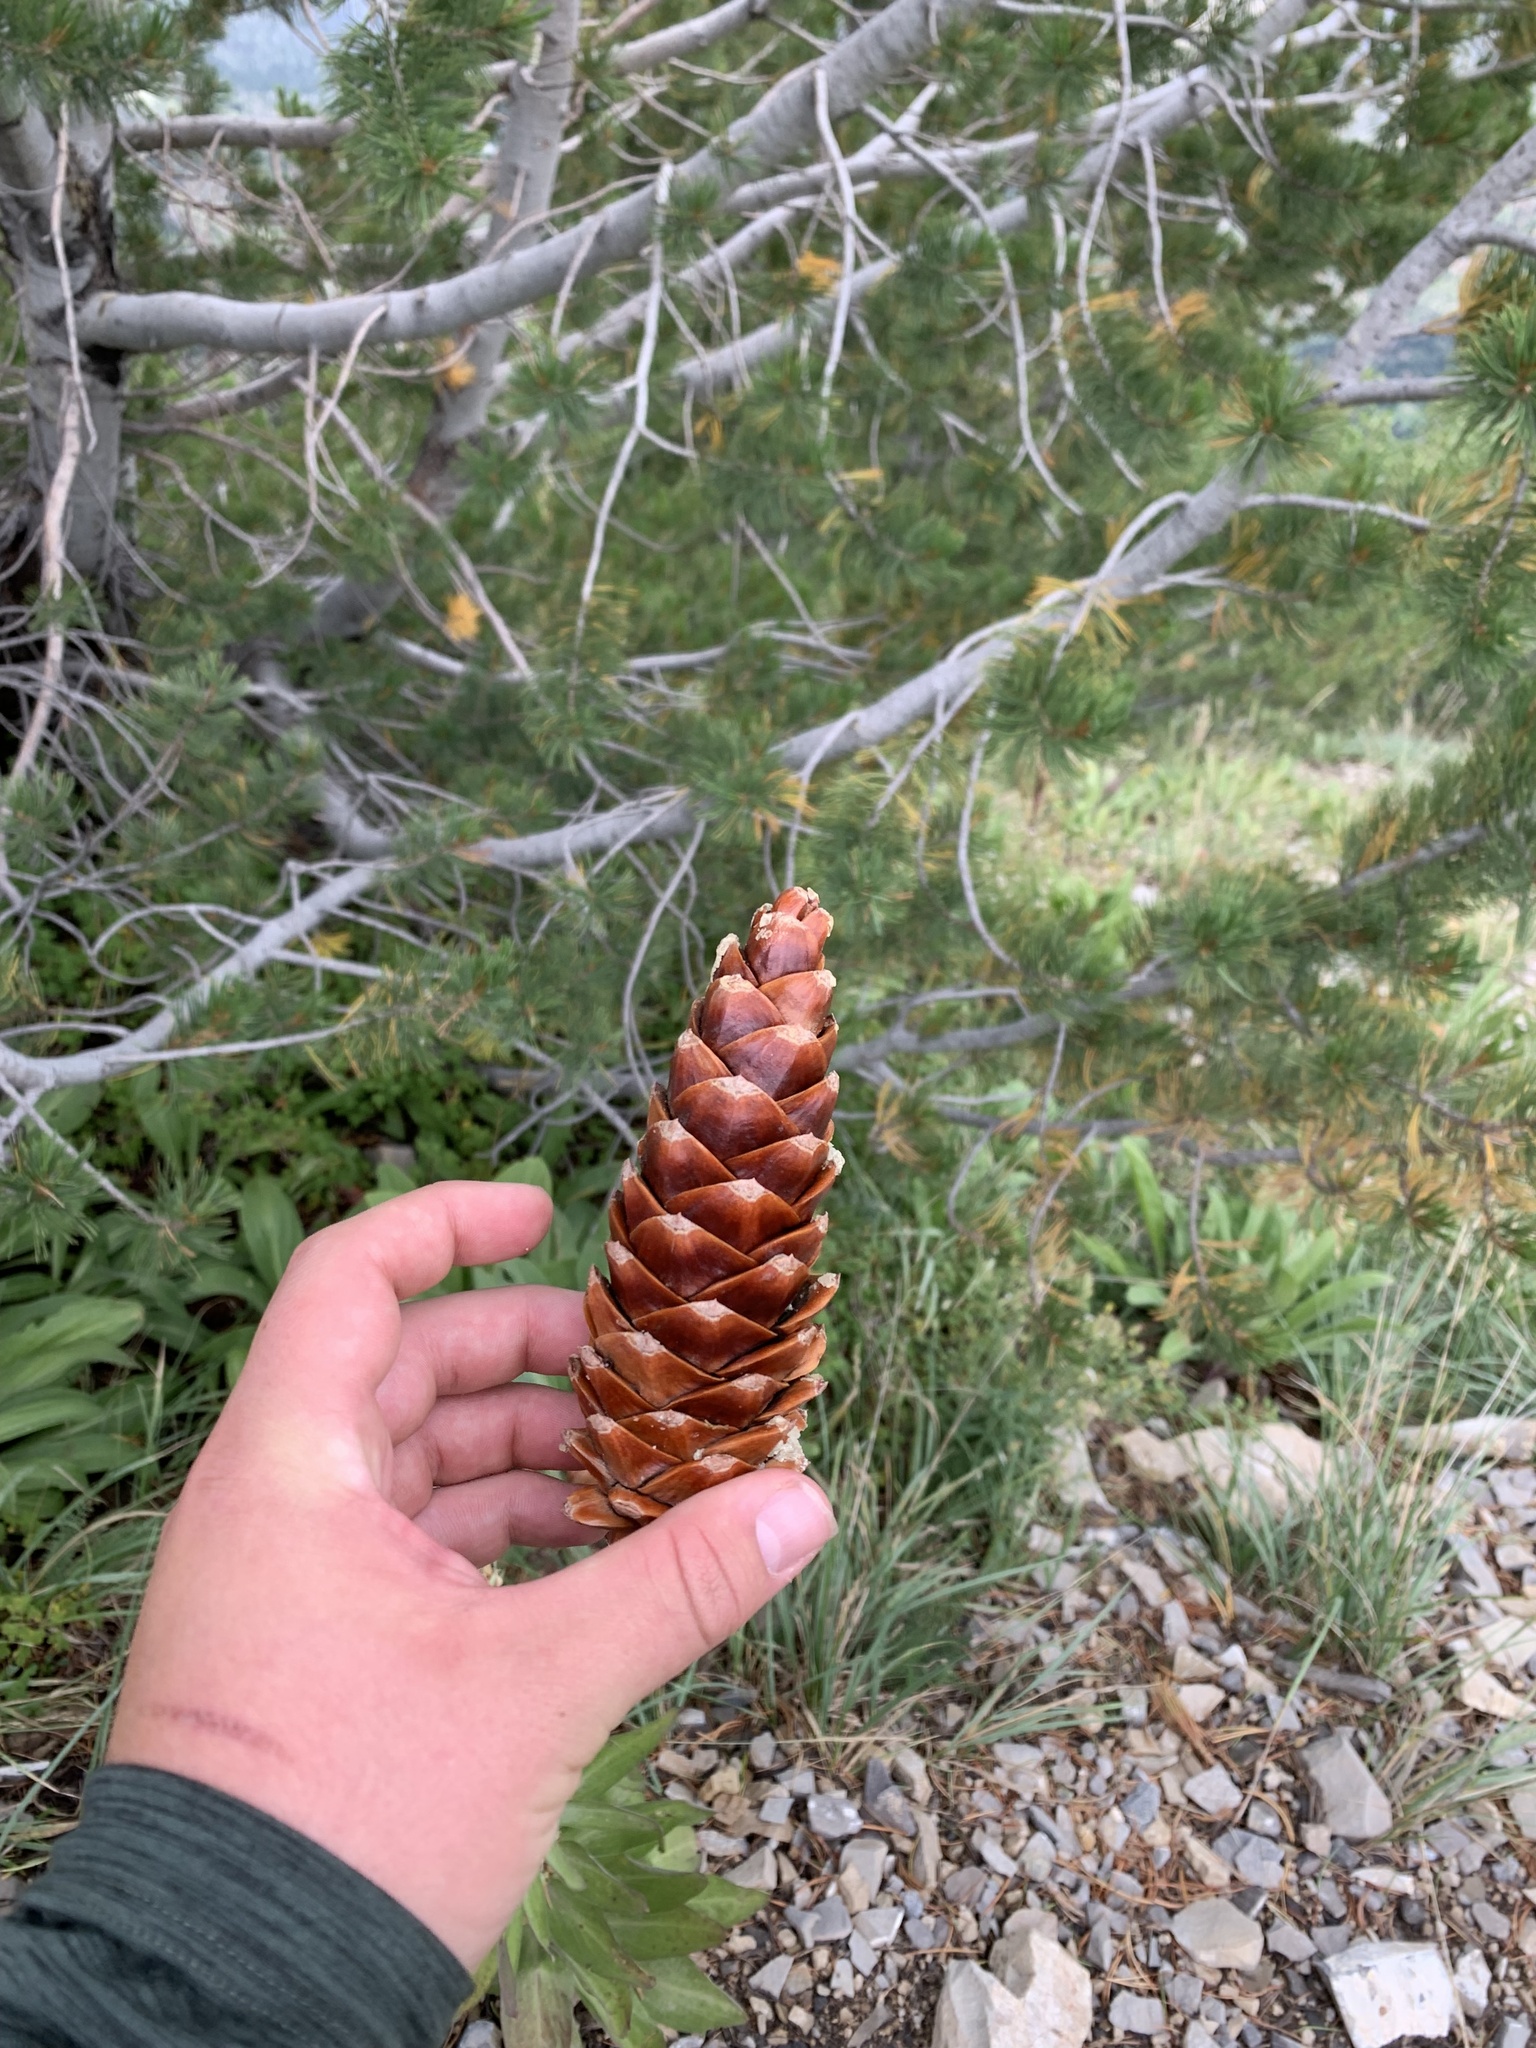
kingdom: Plantae
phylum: Tracheophyta
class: Pinopsida
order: Pinales
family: Pinaceae
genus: Pinus
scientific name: Pinus flexilis
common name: Limber pine
